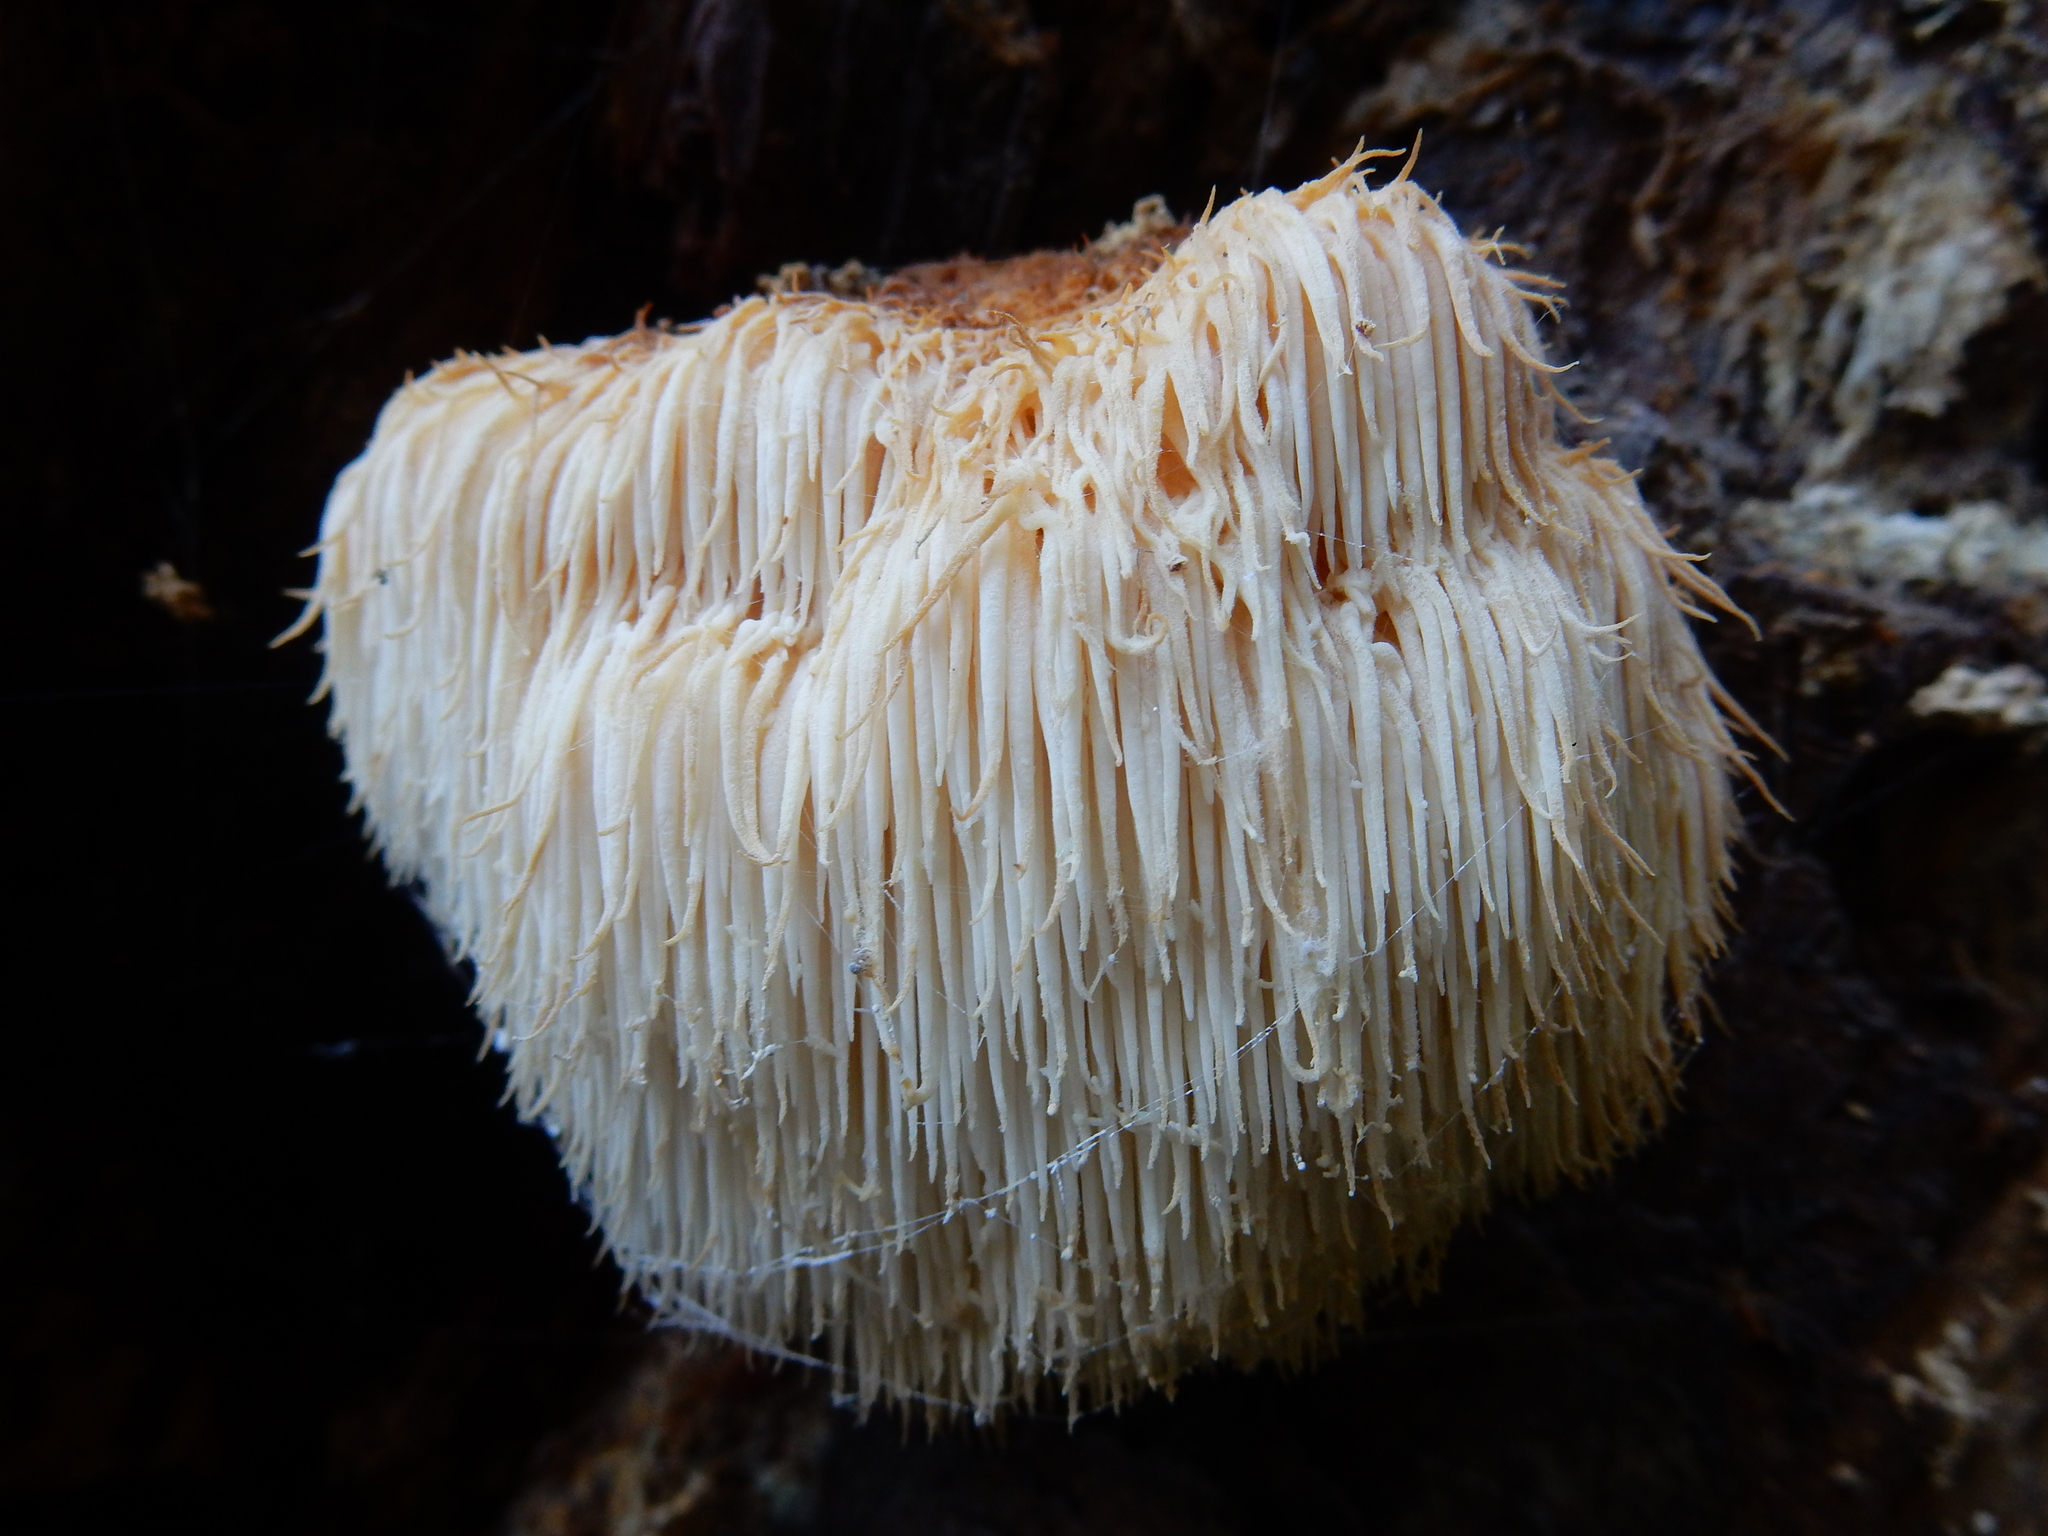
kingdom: Fungi
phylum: Basidiomycota
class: Agaricomycetes
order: Russulales
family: Hericiaceae
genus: Hericium
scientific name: Hericium novae-zealandiae
